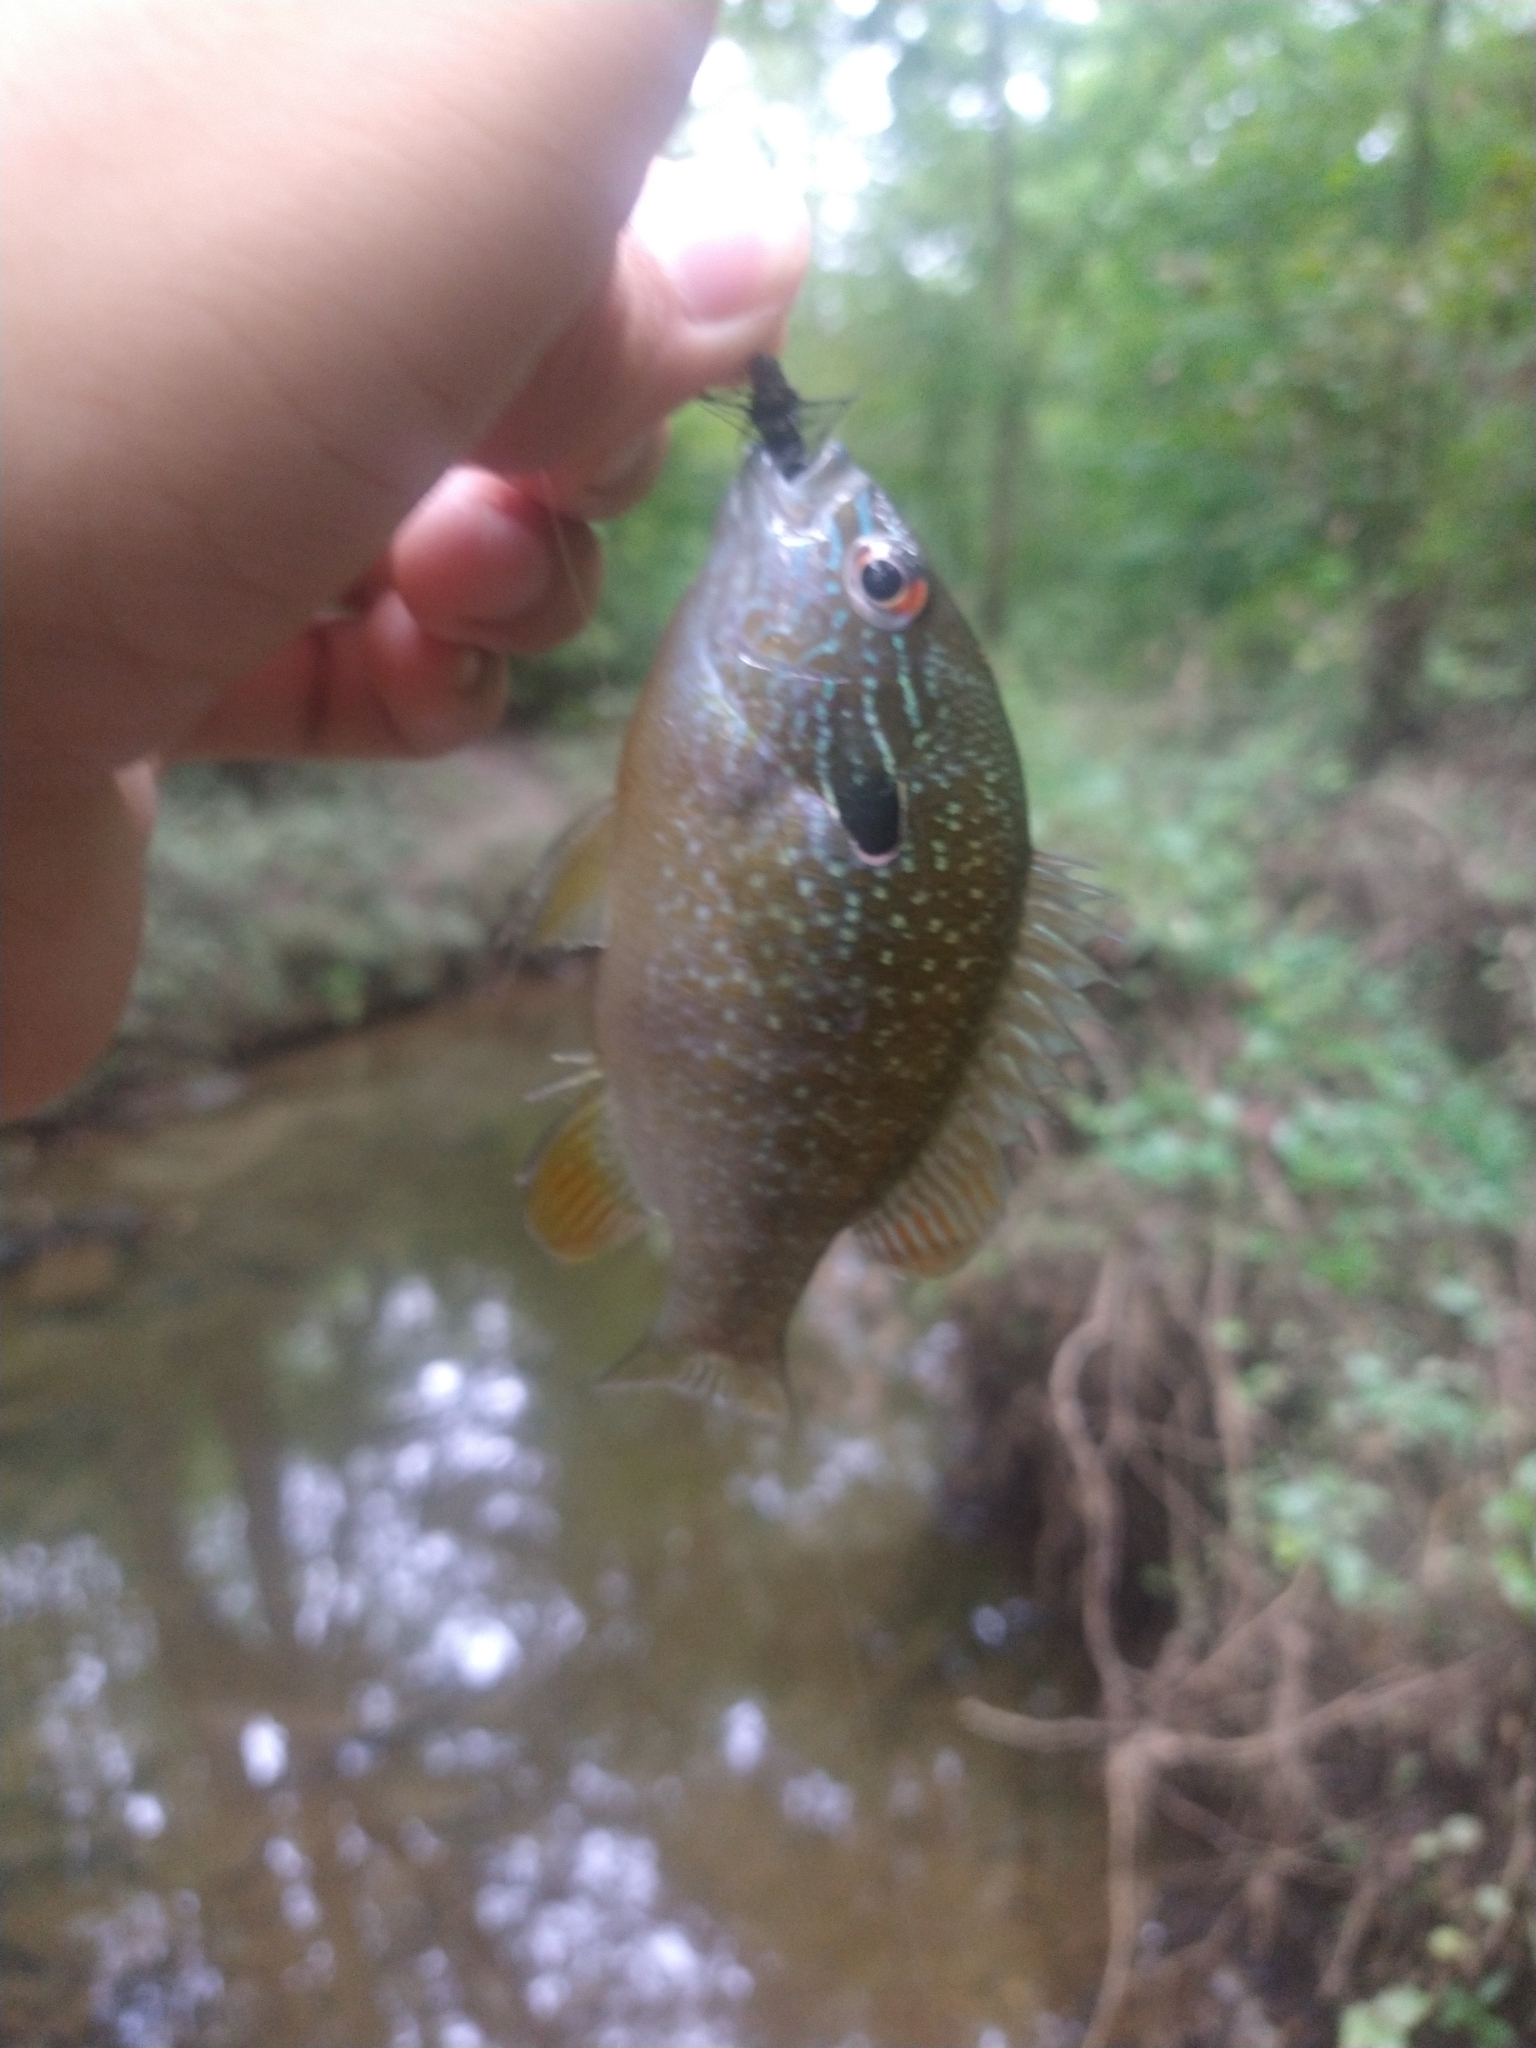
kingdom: Animalia
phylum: Chordata
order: Perciformes
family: Centrarchidae
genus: Lepomis
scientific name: Lepomis megalotis
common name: Longear sunfish
